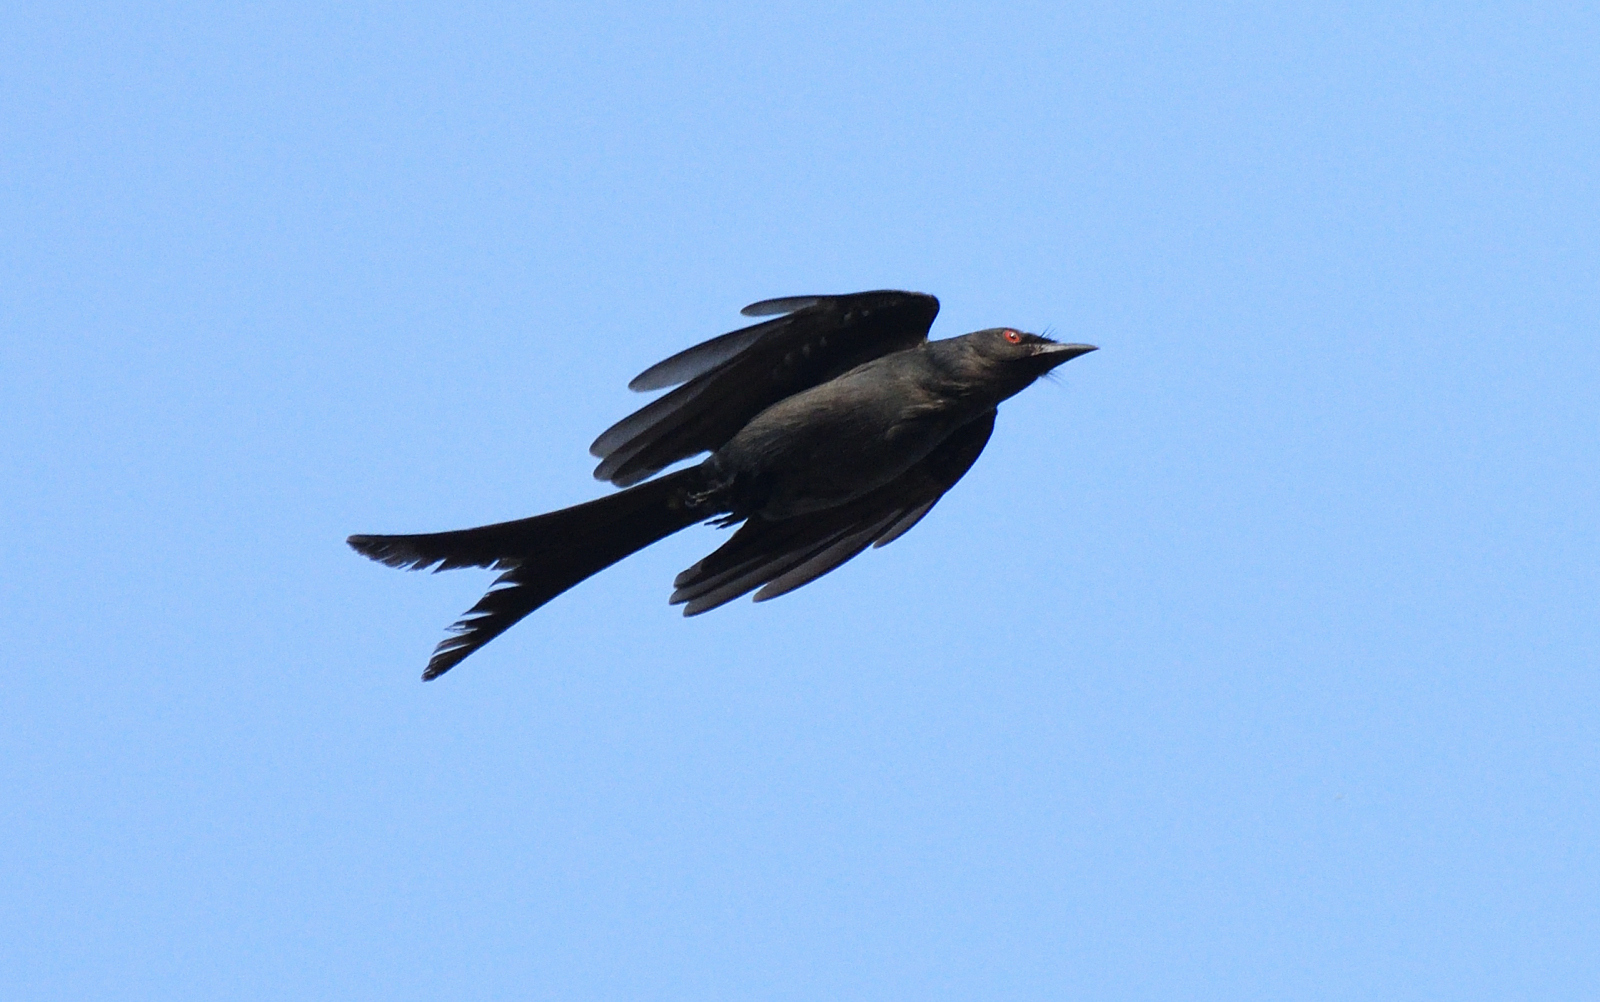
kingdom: Animalia
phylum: Chordata
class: Aves
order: Passeriformes
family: Dicruridae
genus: Dicrurus
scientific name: Dicrurus leucophaeus
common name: Ashy drongo
